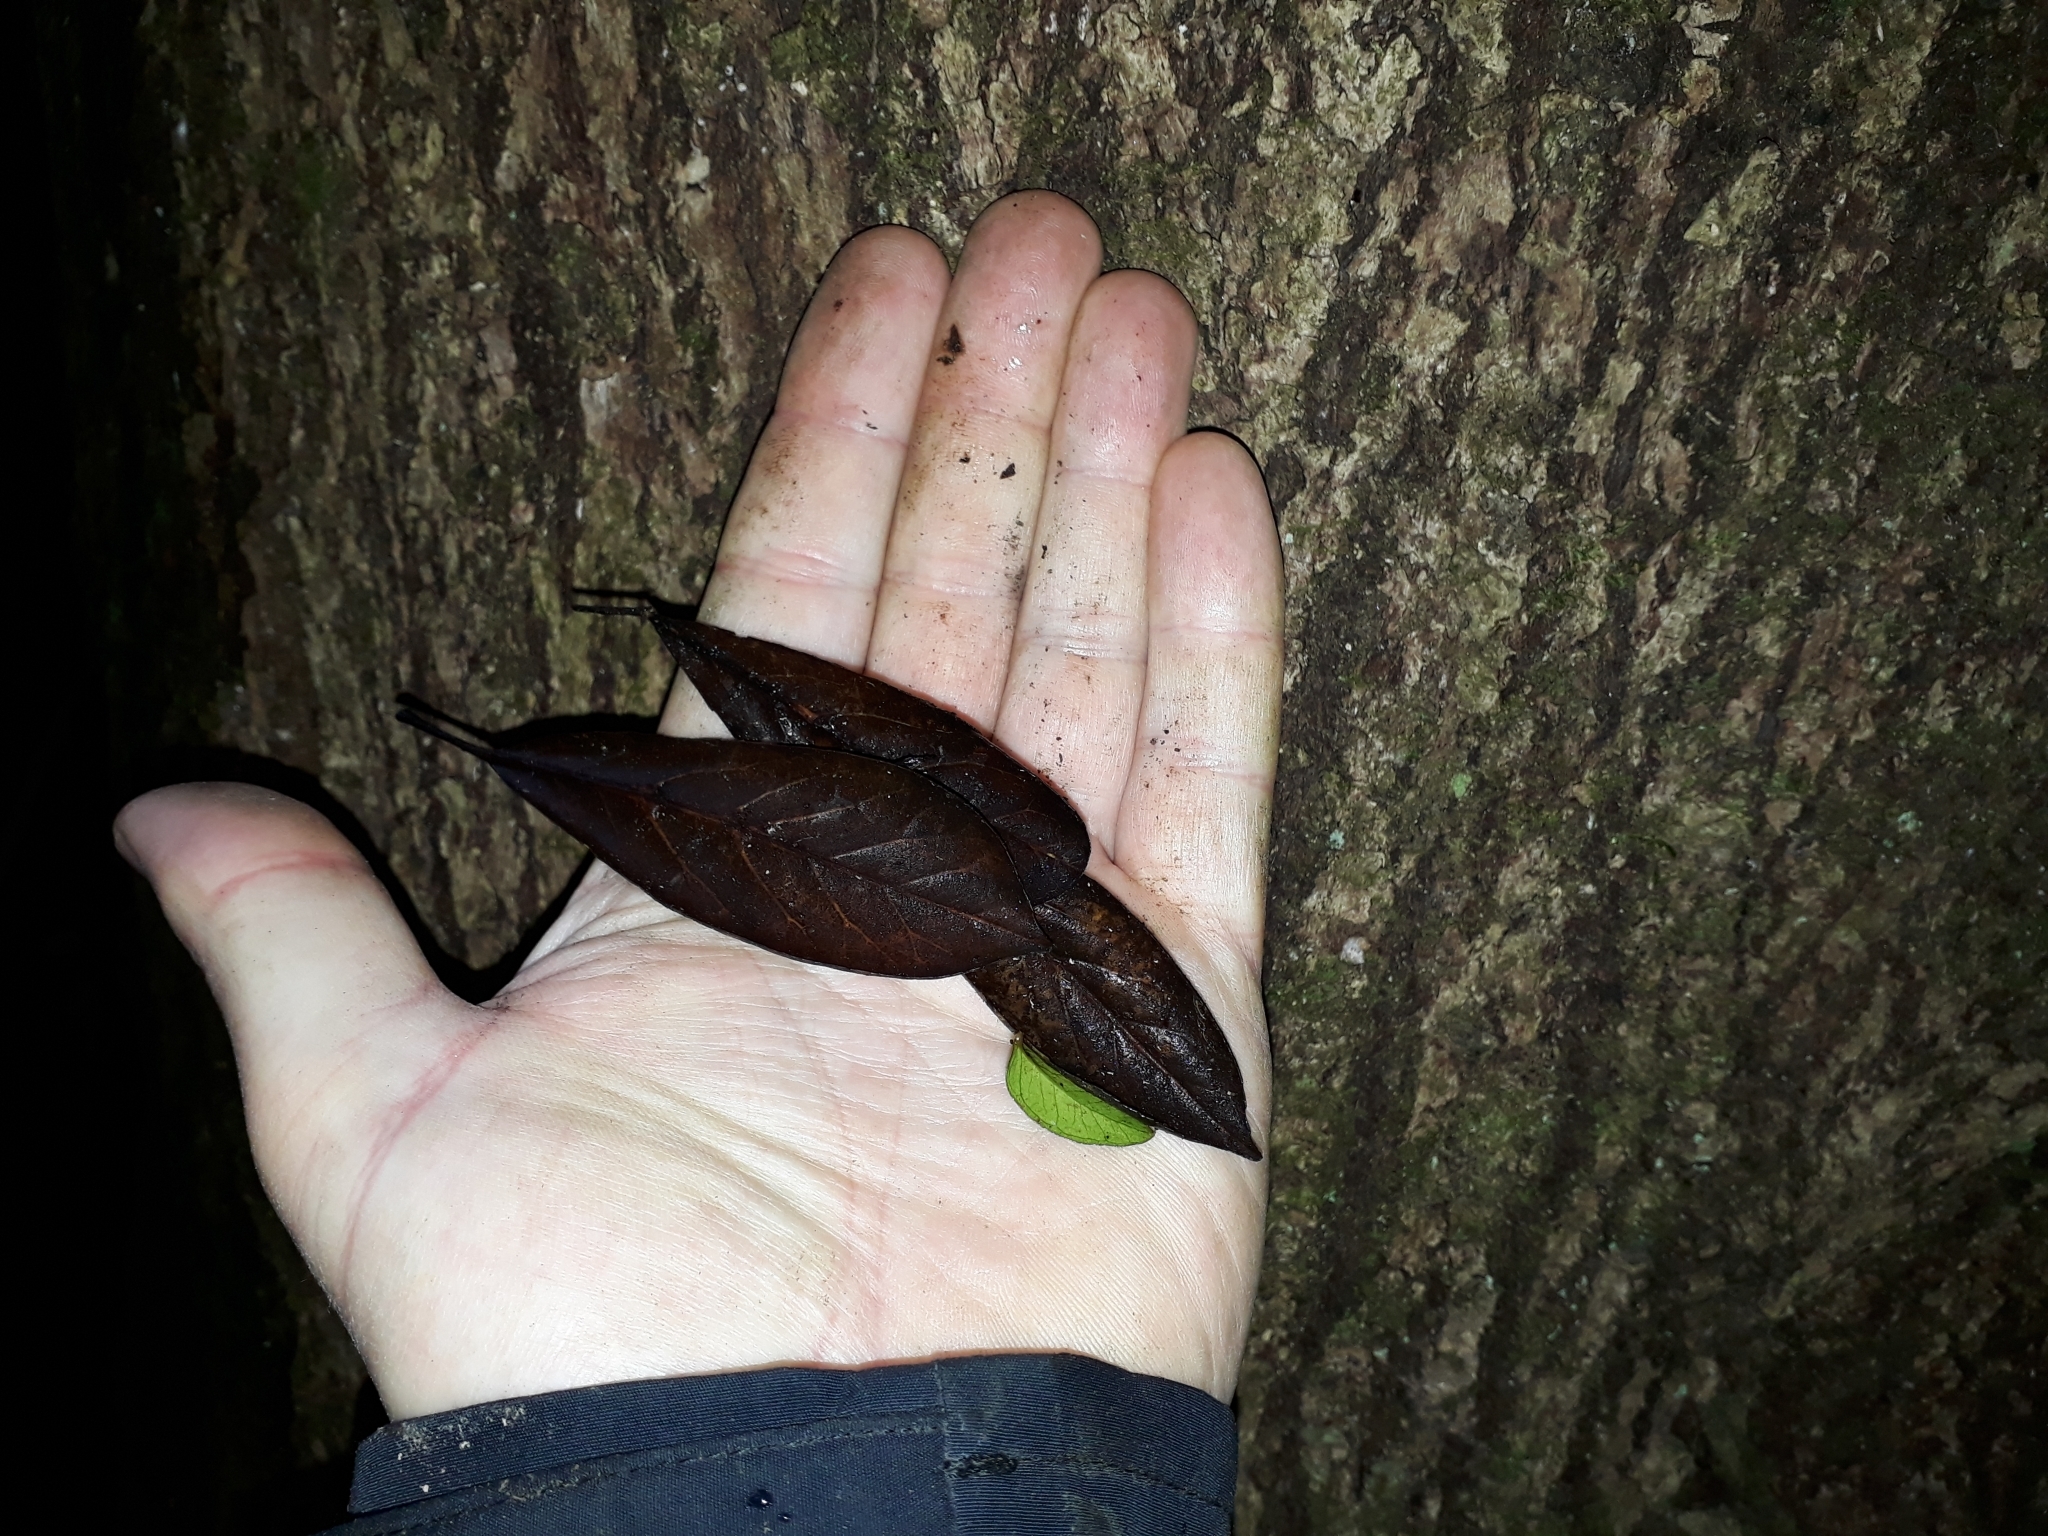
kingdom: Plantae
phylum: Tracheophyta
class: Magnoliopsida
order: Oxalidales
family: Elaeocarpaceae
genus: Elaeocarpus
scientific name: Elaeocarpus dentatus
